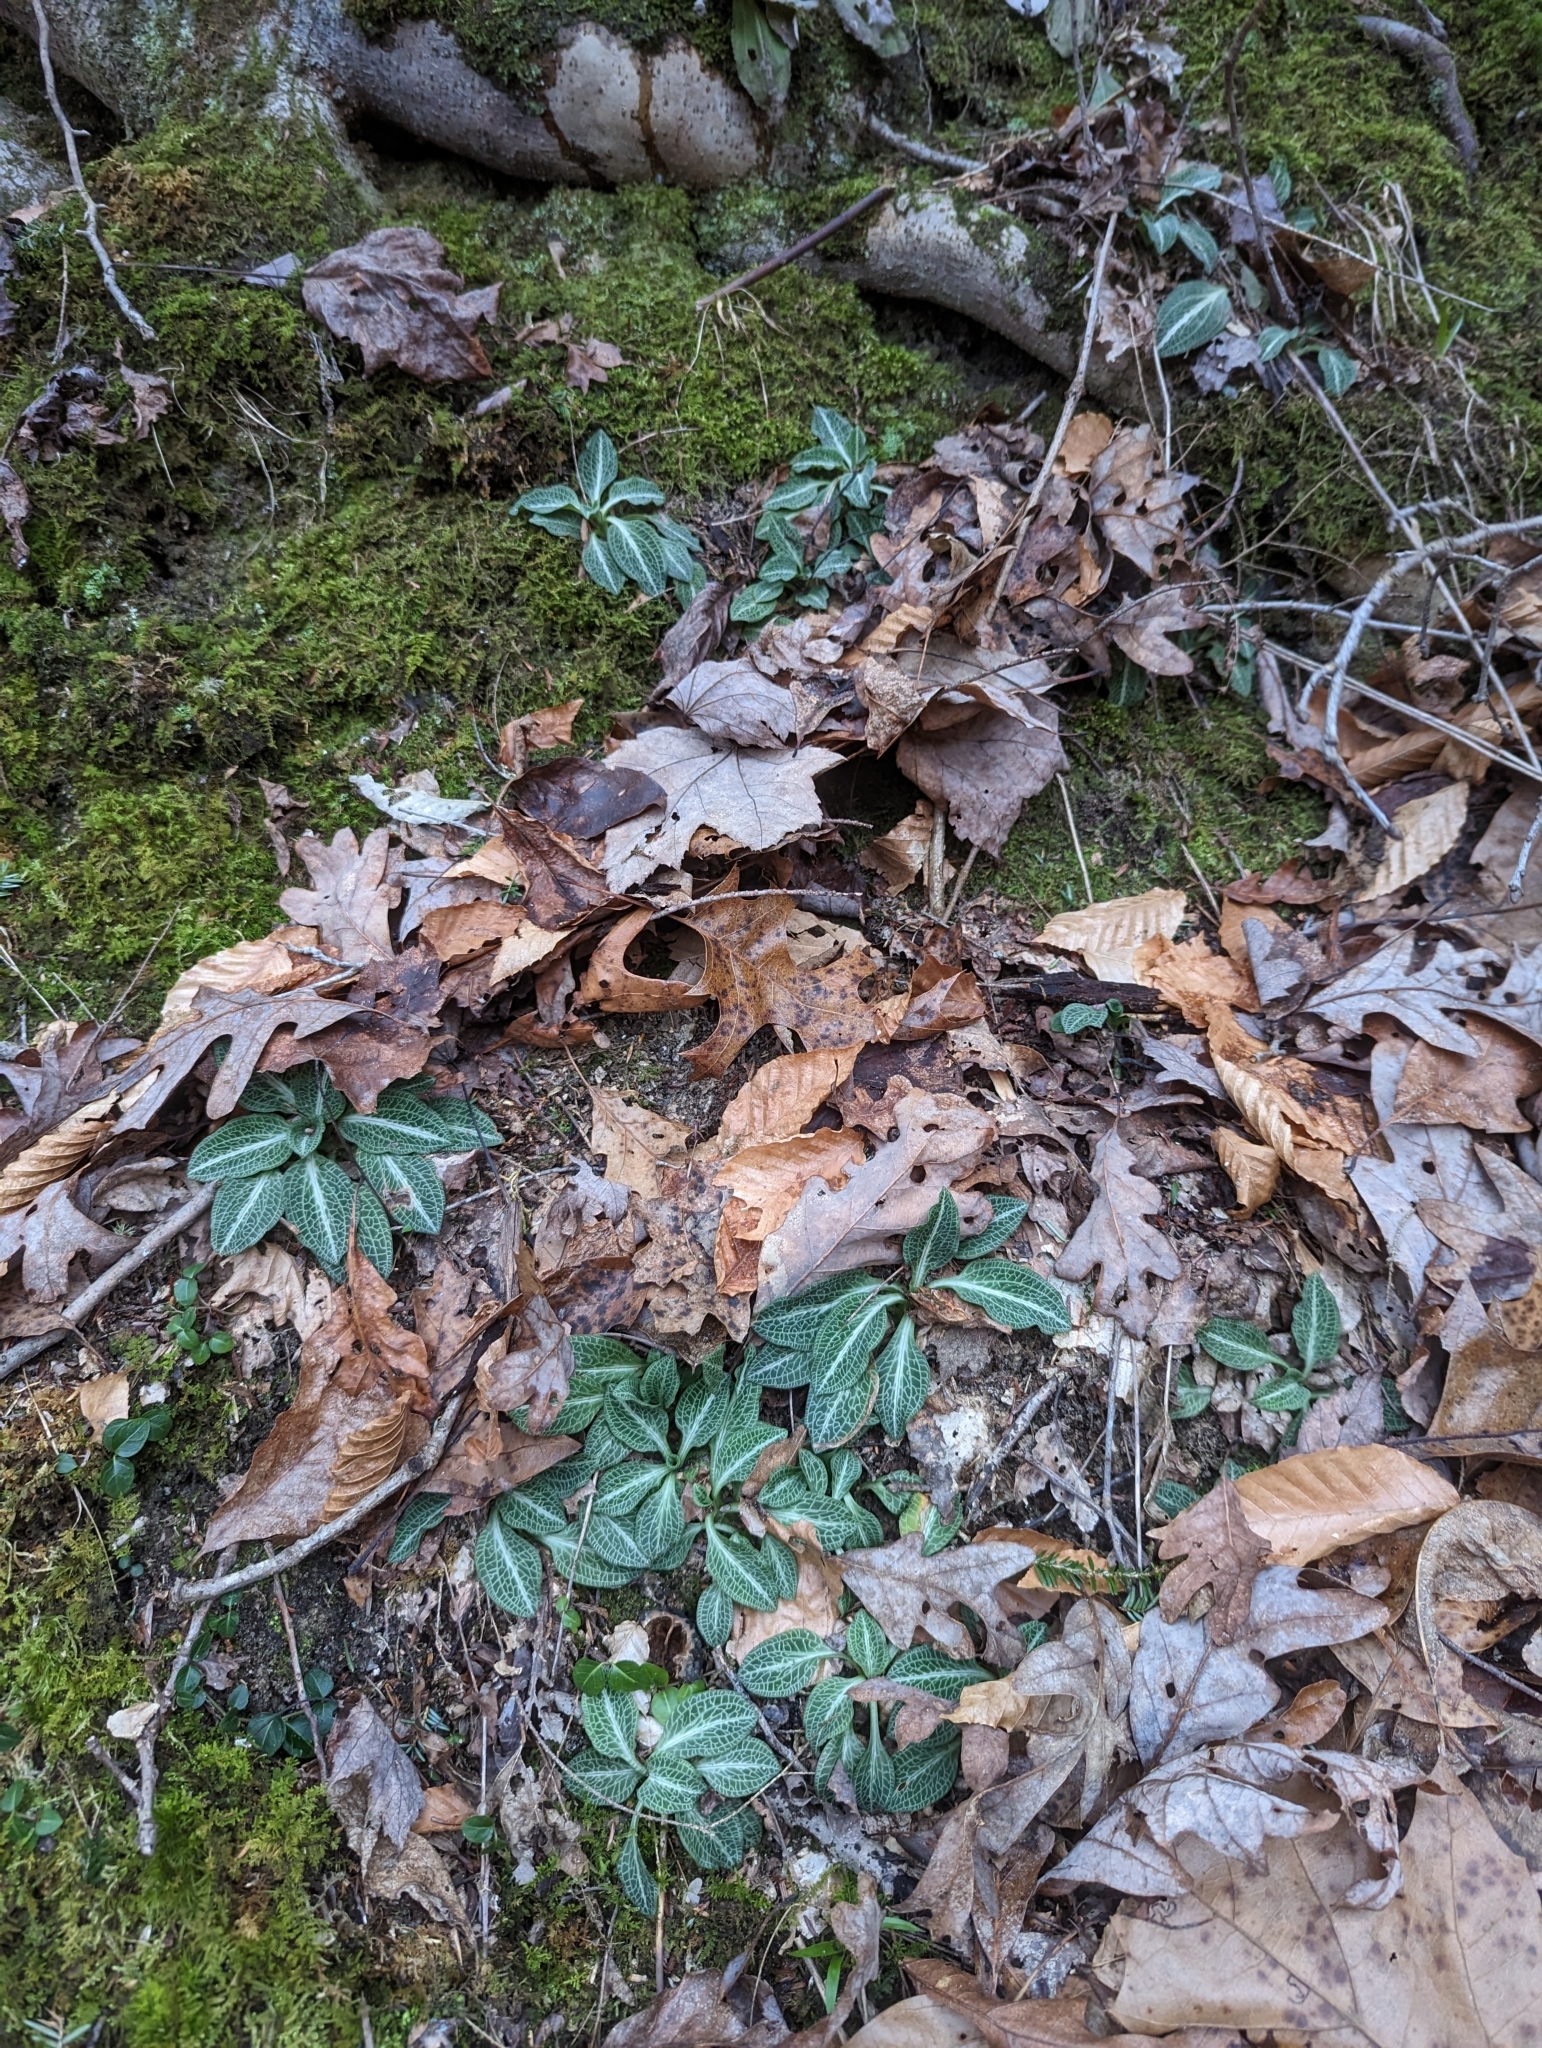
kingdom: Plantae
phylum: Tracheophyta
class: Liliopsida
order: Asparagales
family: Orchidaceae
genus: Goodyera
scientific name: Goodyera pubescens
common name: Downy rattlesnake-plantain
